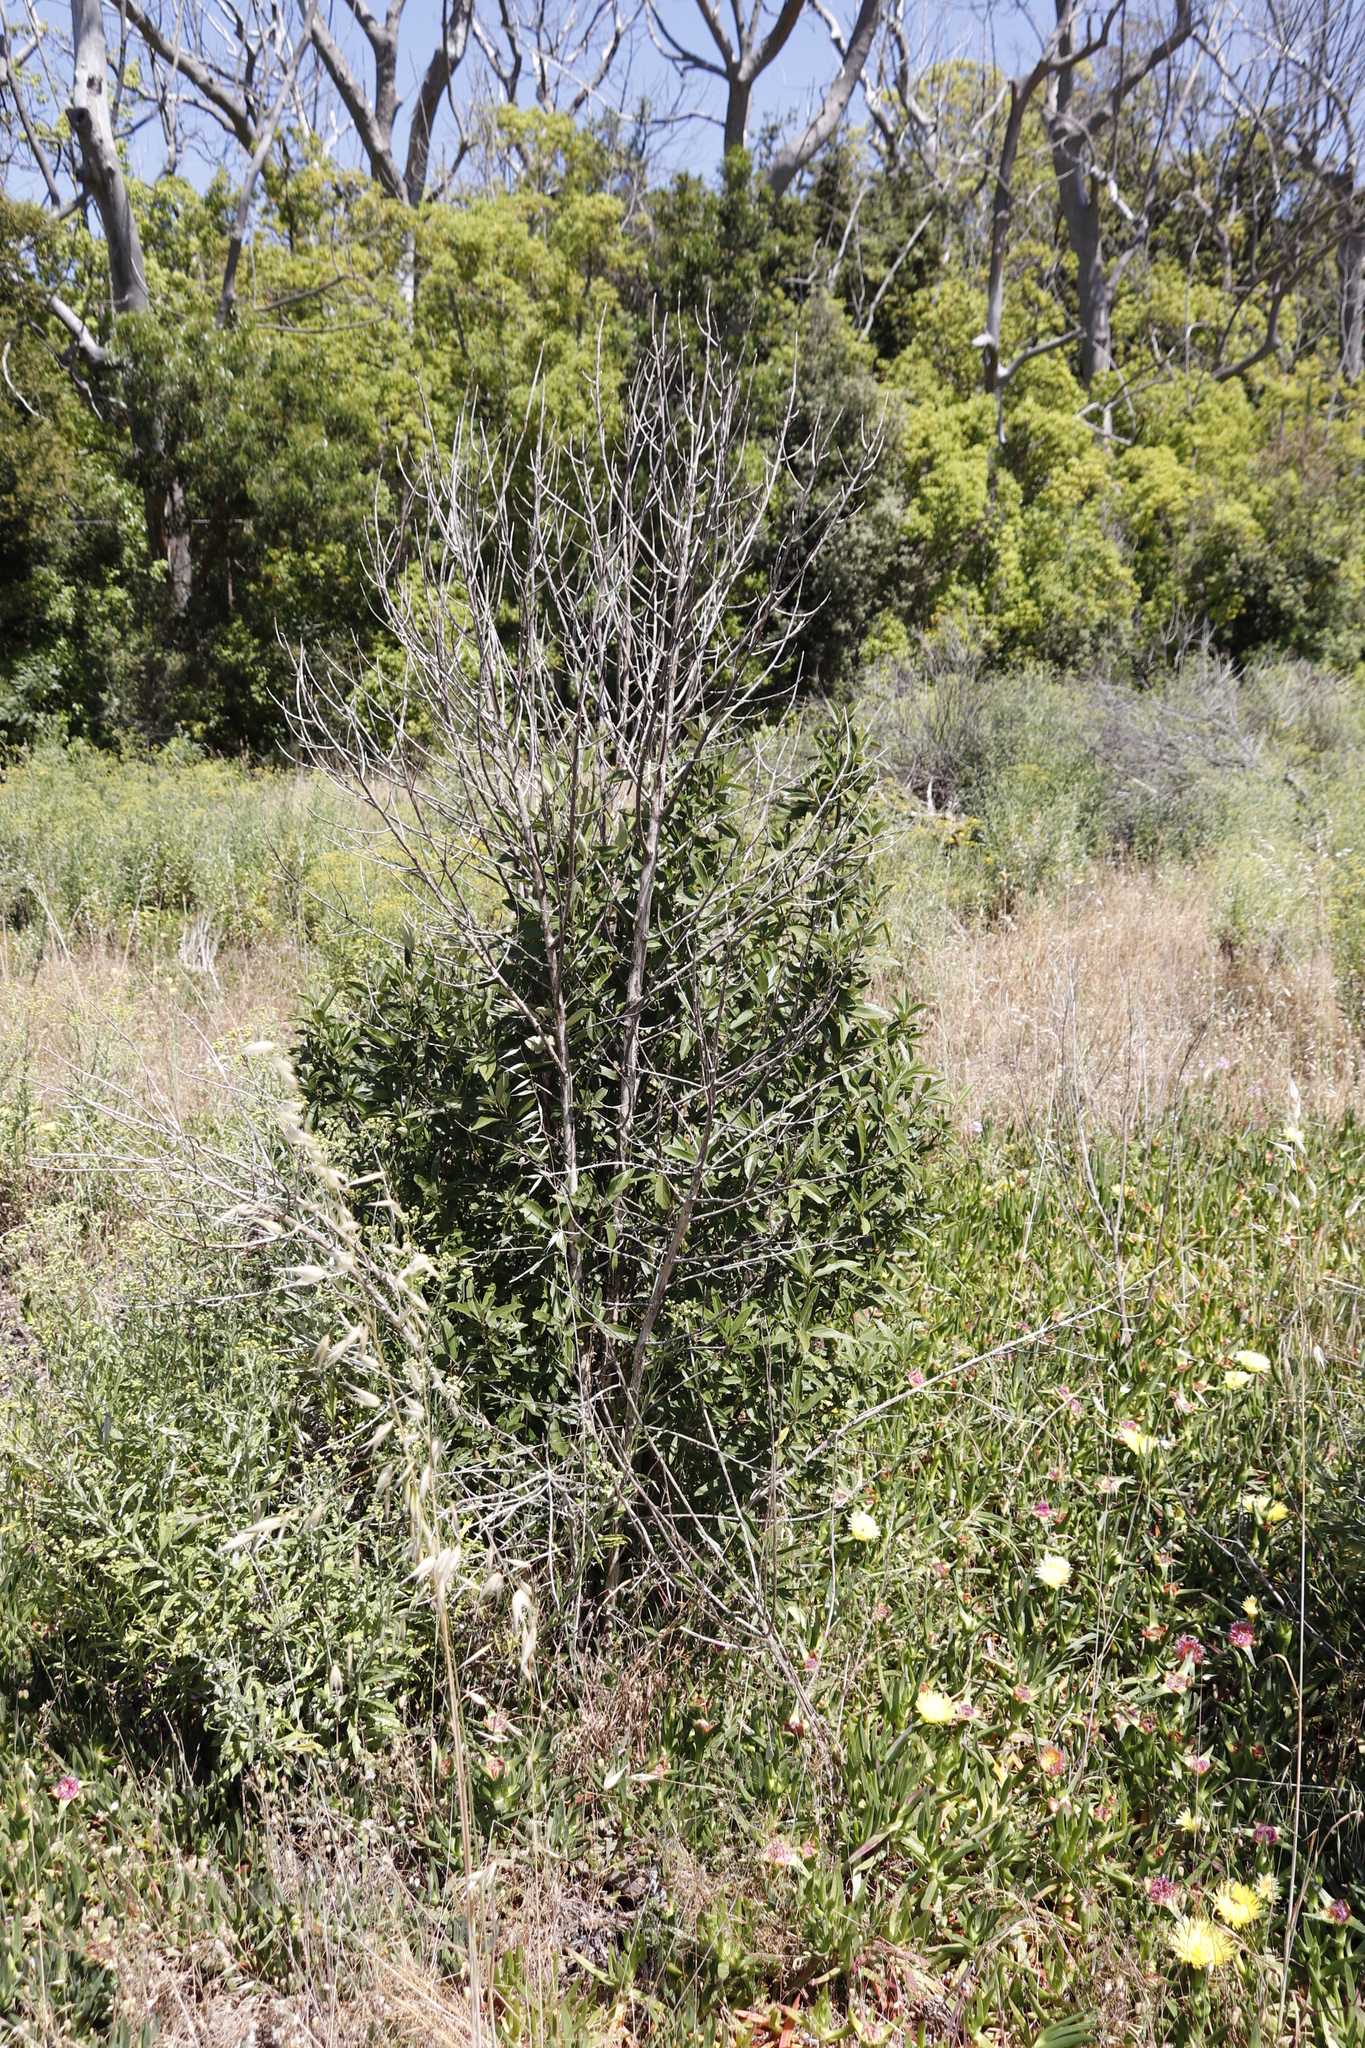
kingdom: Plantae
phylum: Tracheophyta
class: Magnoliopsida
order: Malpighiales
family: Achariaceae
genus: Kiggelaria
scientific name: Kiggelaria africana
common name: Wild peach
